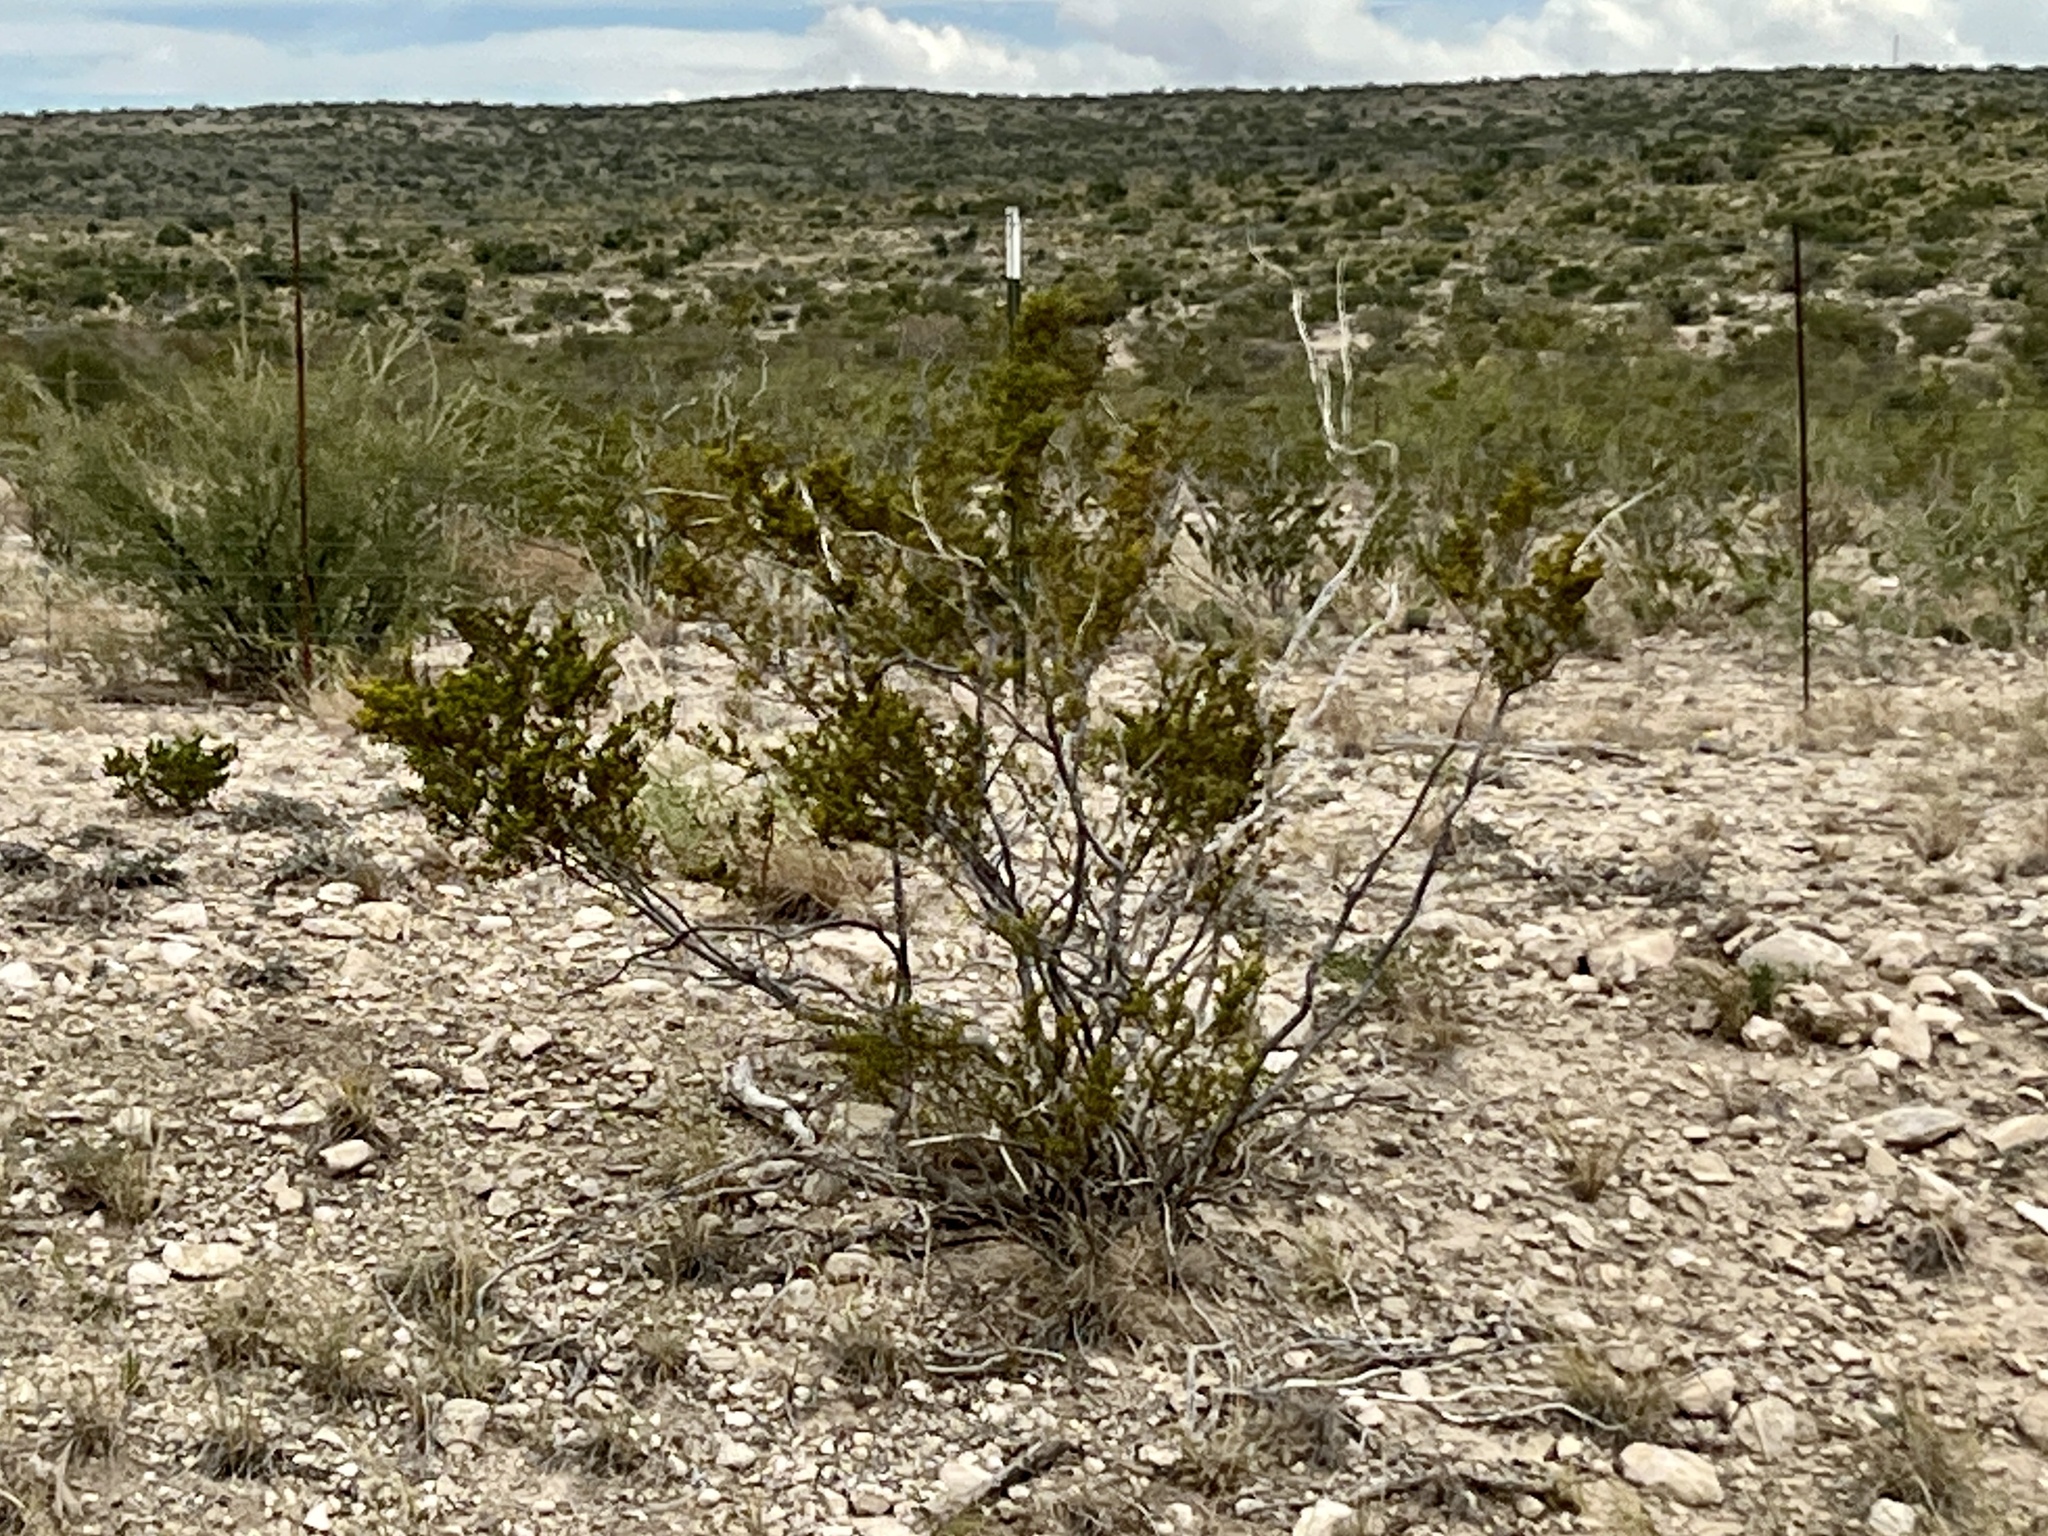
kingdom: Plantae
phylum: Tracheophyta
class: Magnoliopsida
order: Zygophyllales
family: Zygophyllaceae
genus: Larrea
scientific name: Larrea tridentata
